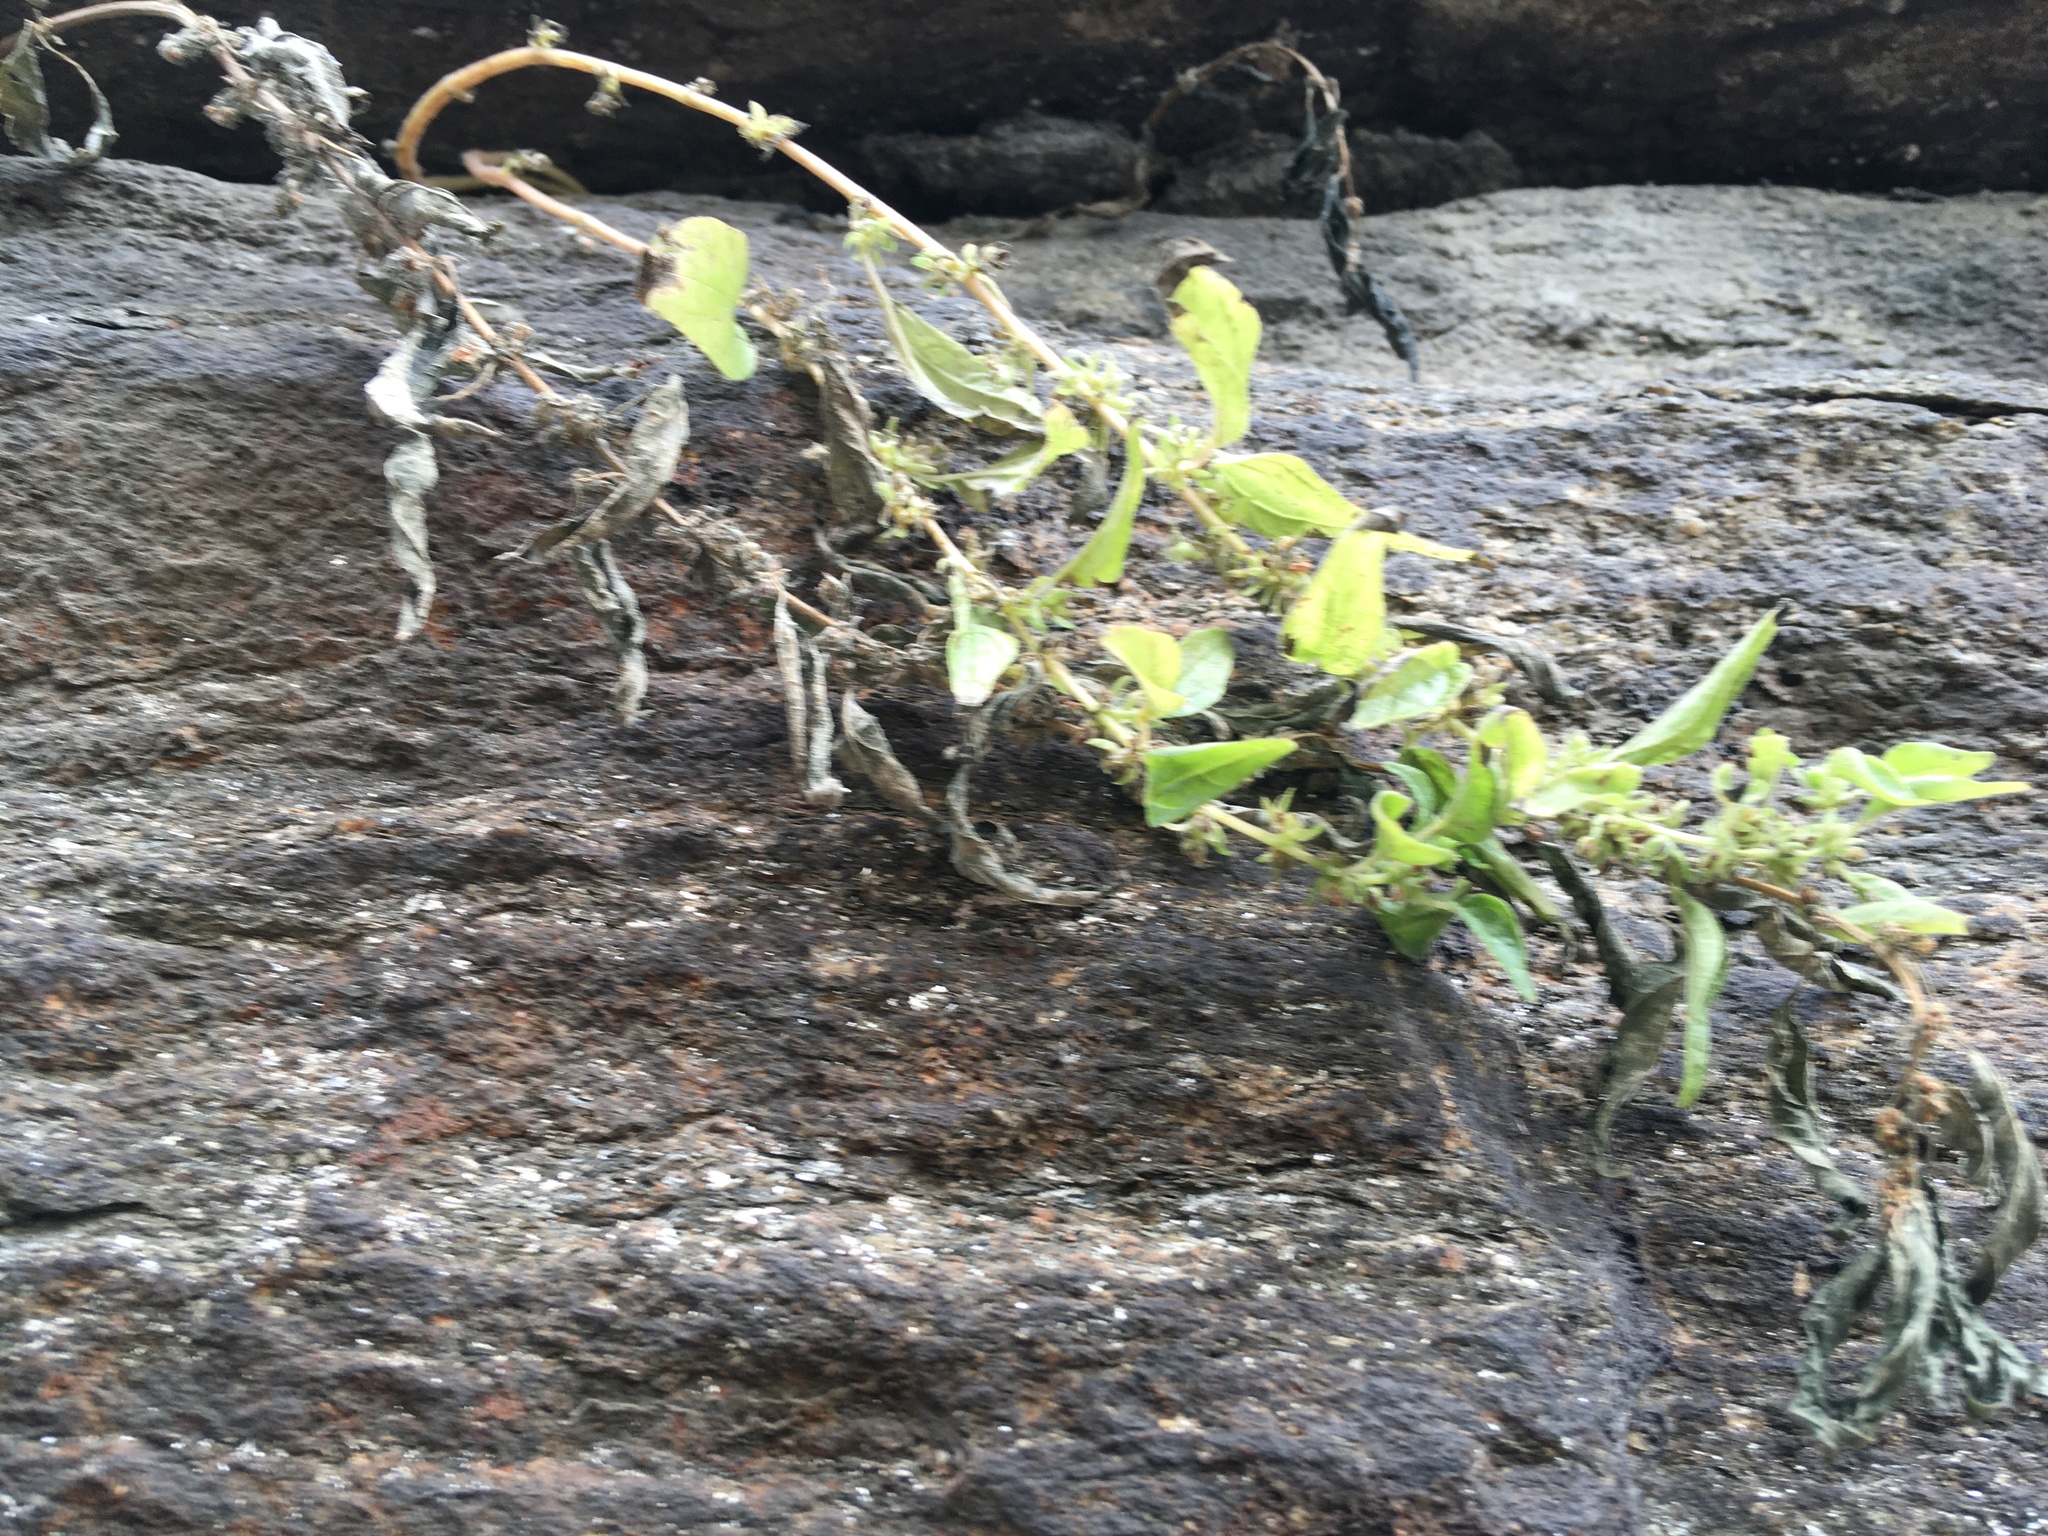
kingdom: Plantae
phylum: Tracheophyta
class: Magnoliopsida
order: Rosales
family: Urticaceae
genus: Parietaria
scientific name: Parietaria pensylvanica
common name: Pennsylvania pellitory
